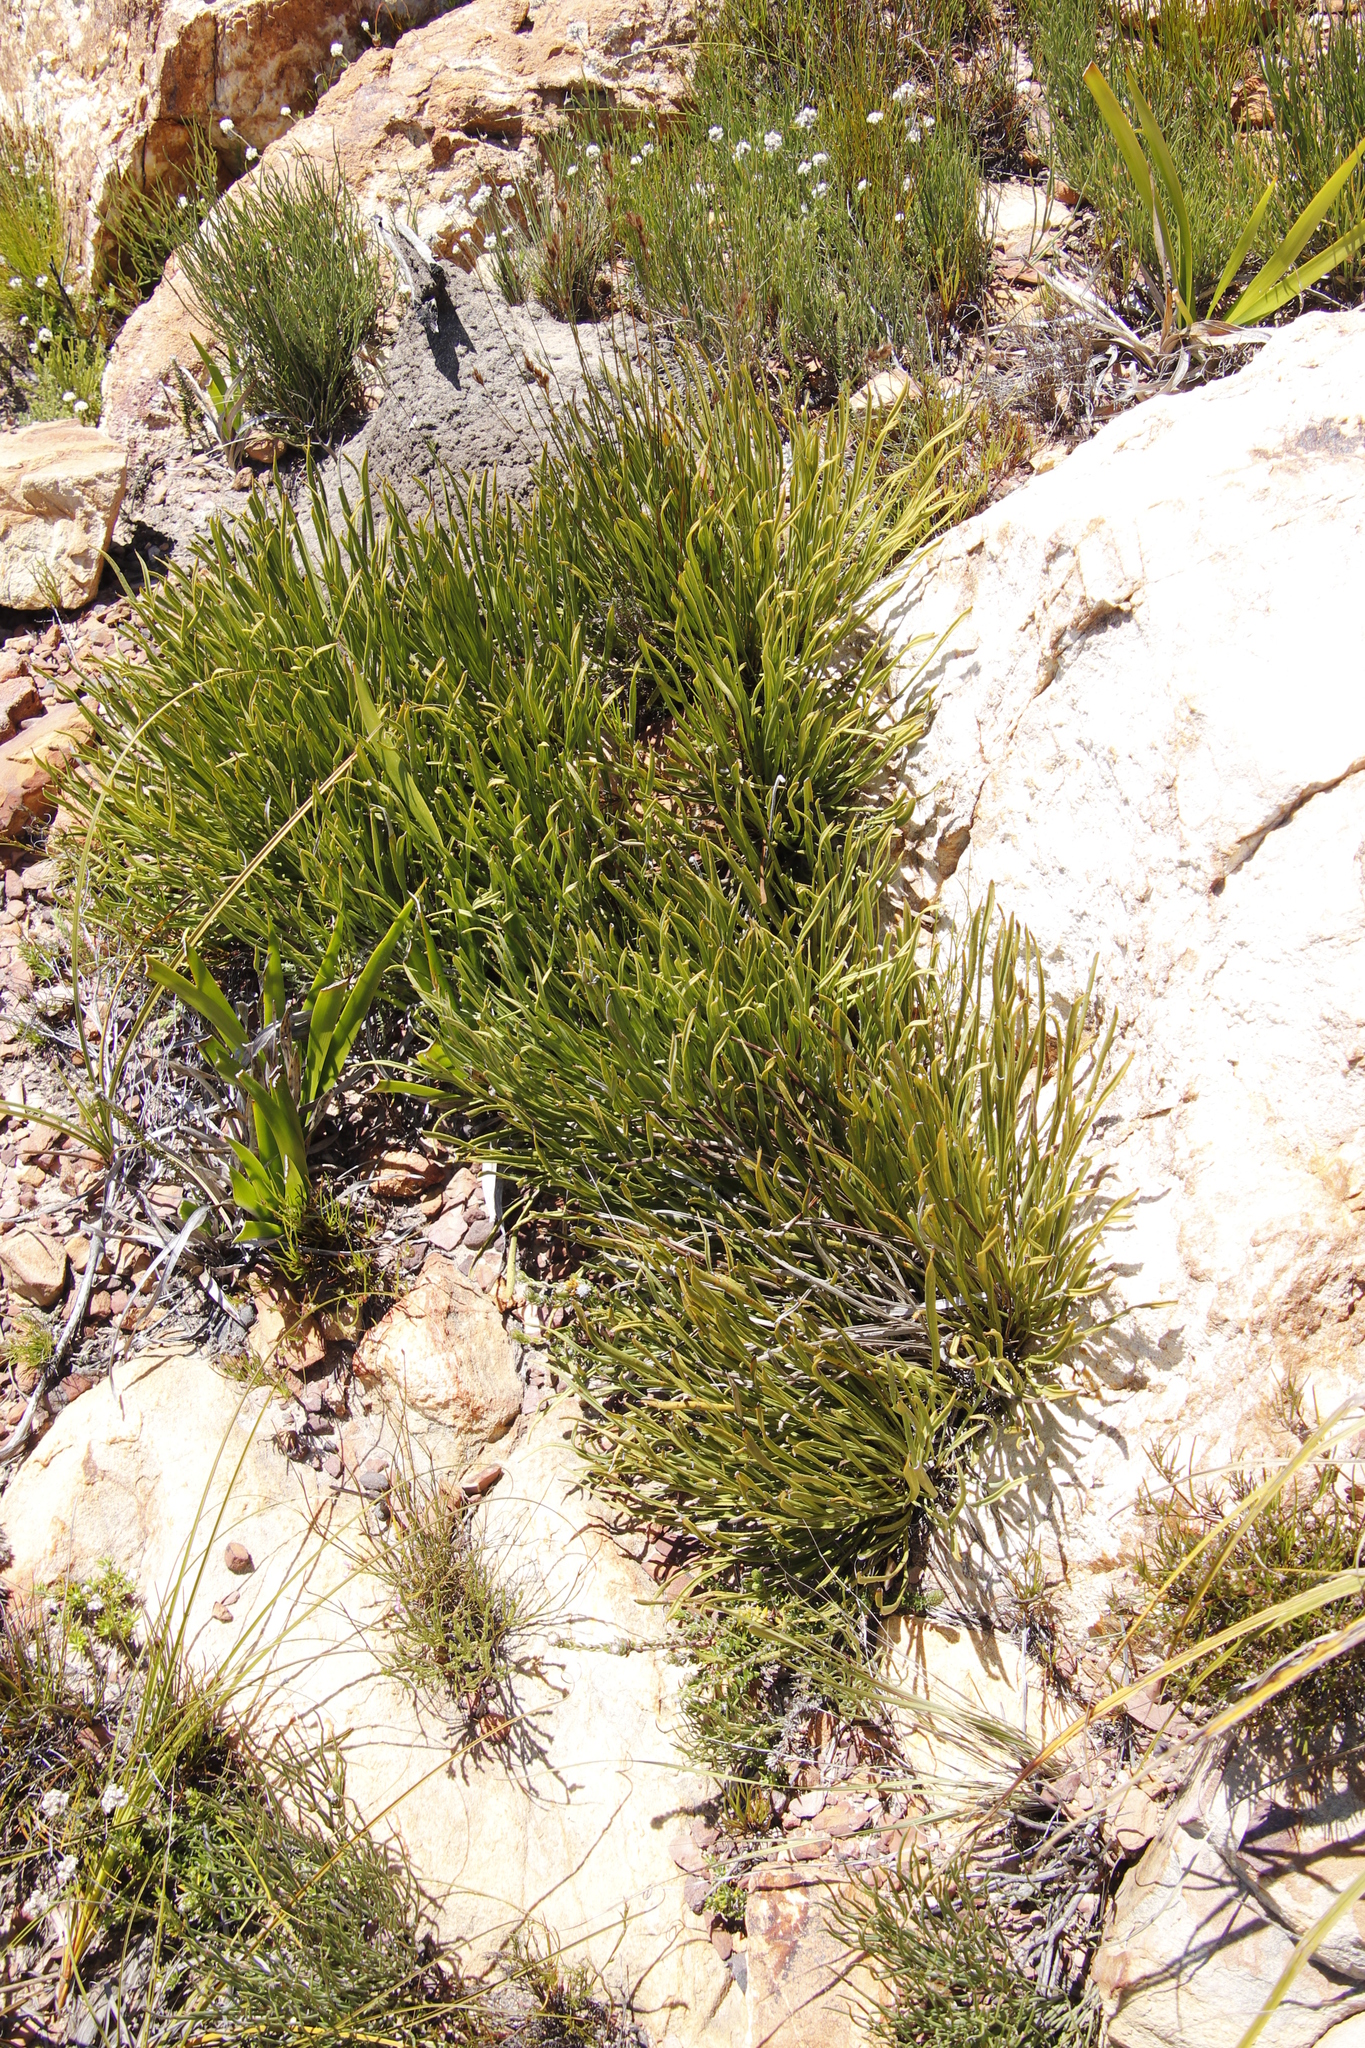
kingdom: Plantae
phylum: Tracheophyta
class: Magnoliopsida
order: Proteales
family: Proteaceae
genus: Protea
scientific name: Protea scabra
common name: Sandpaper-leaf sugarbush
